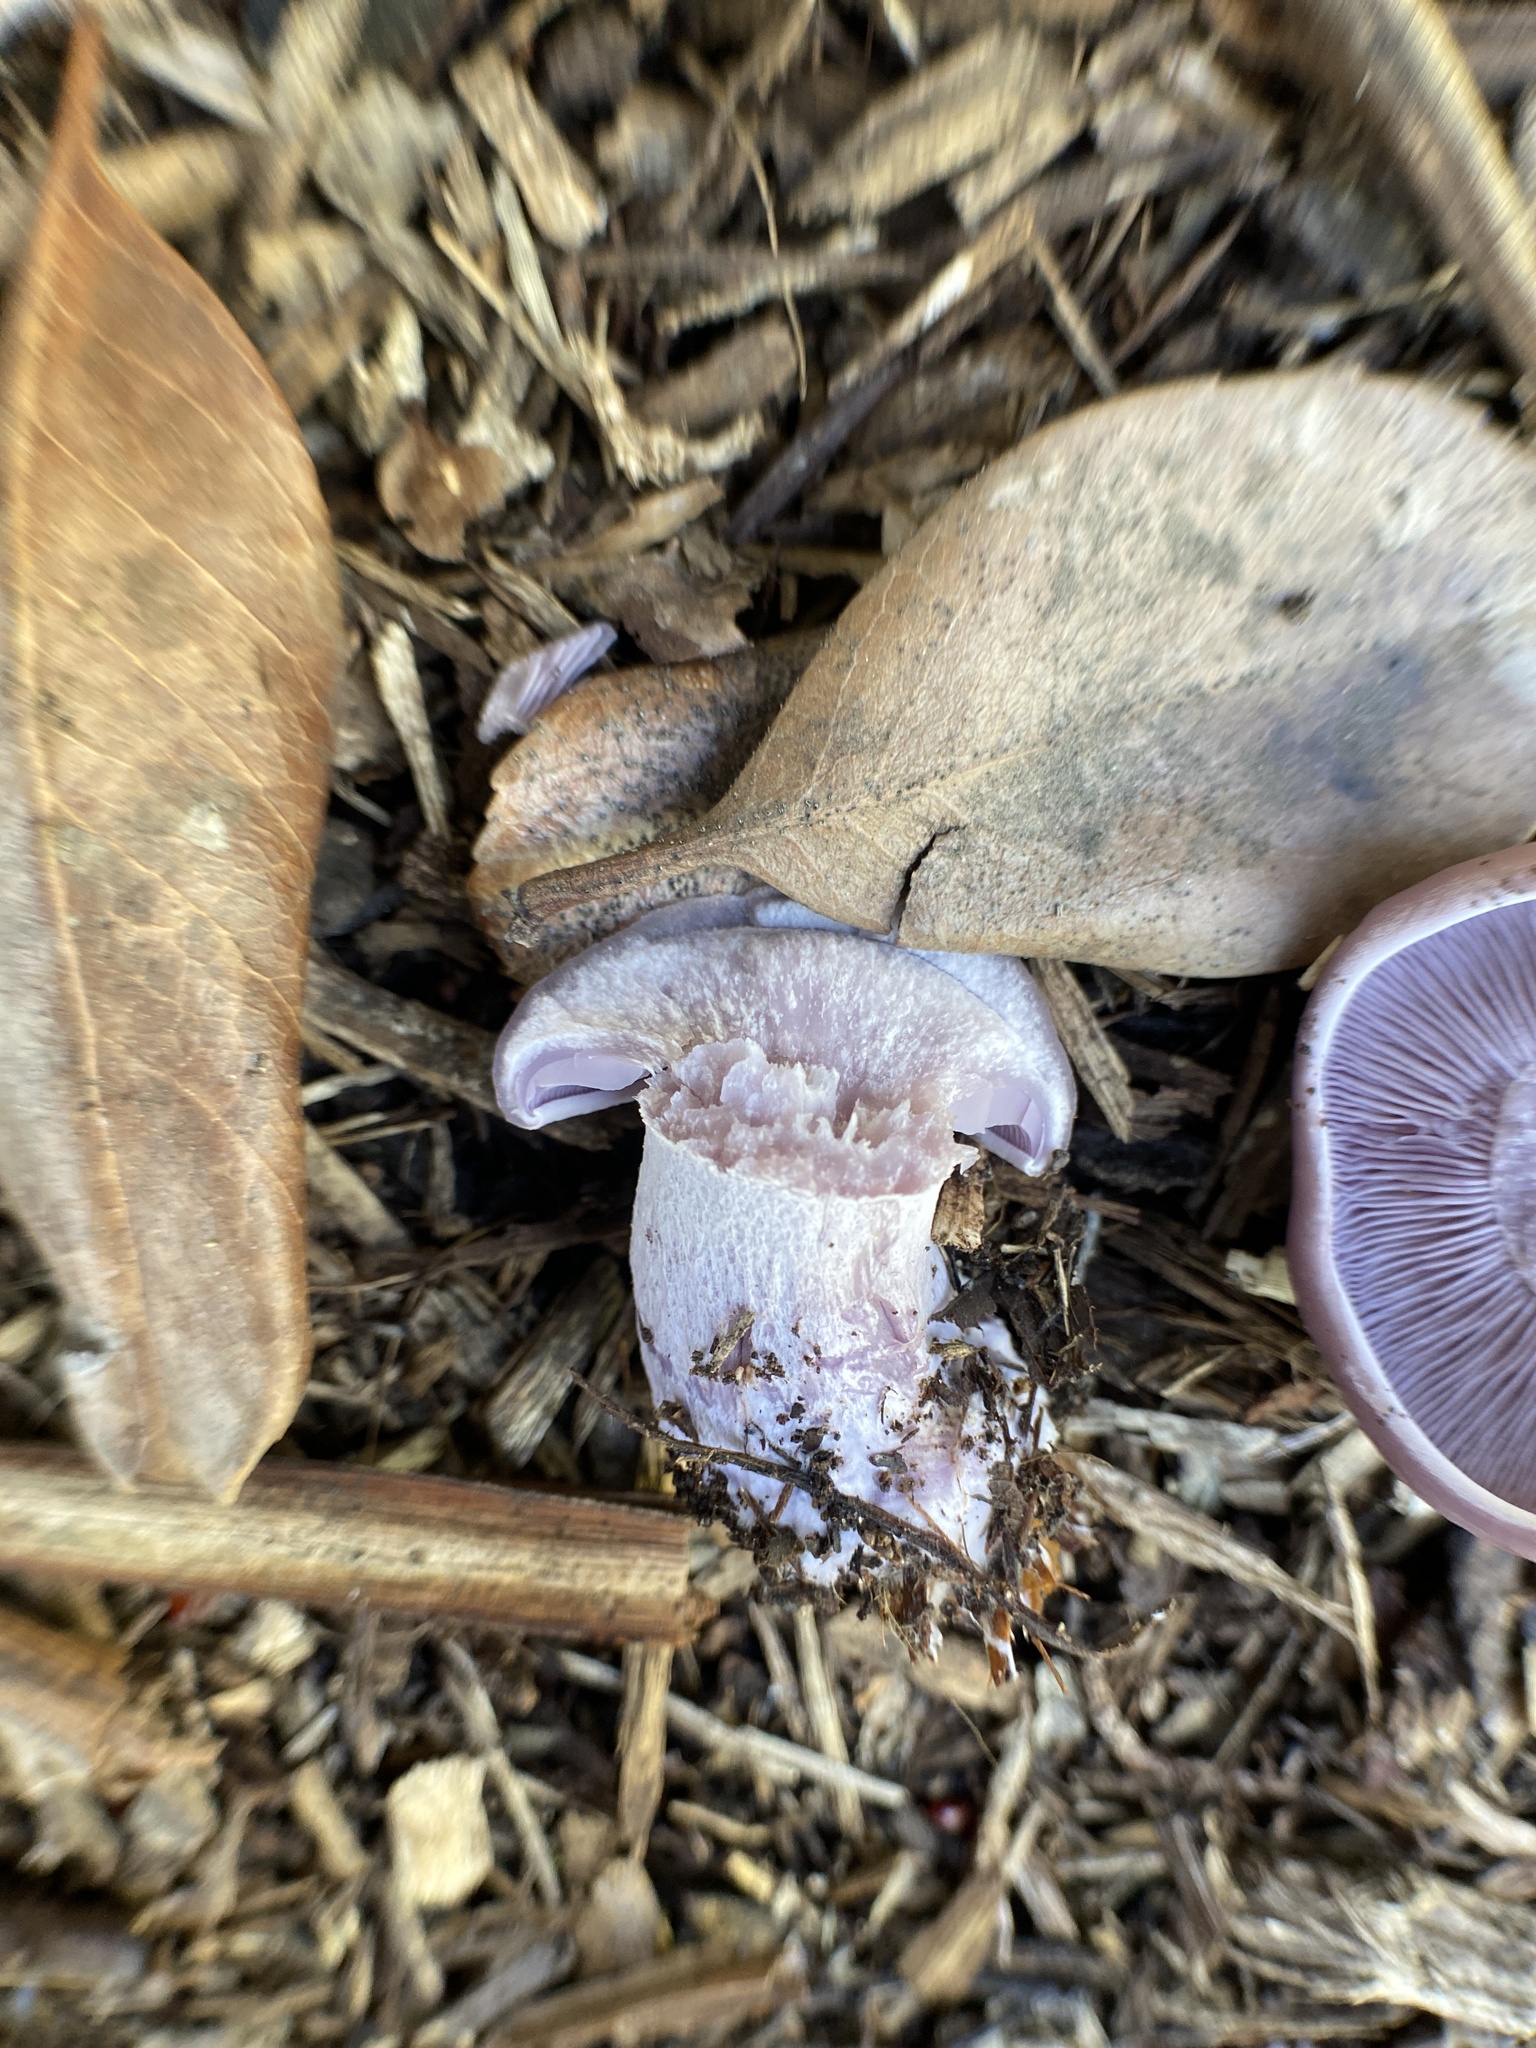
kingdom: Fungi
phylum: Basidiomycota
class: Agaricomycetes
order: Agaricales
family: Tricholomataceae
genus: Collybia
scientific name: Collybia
